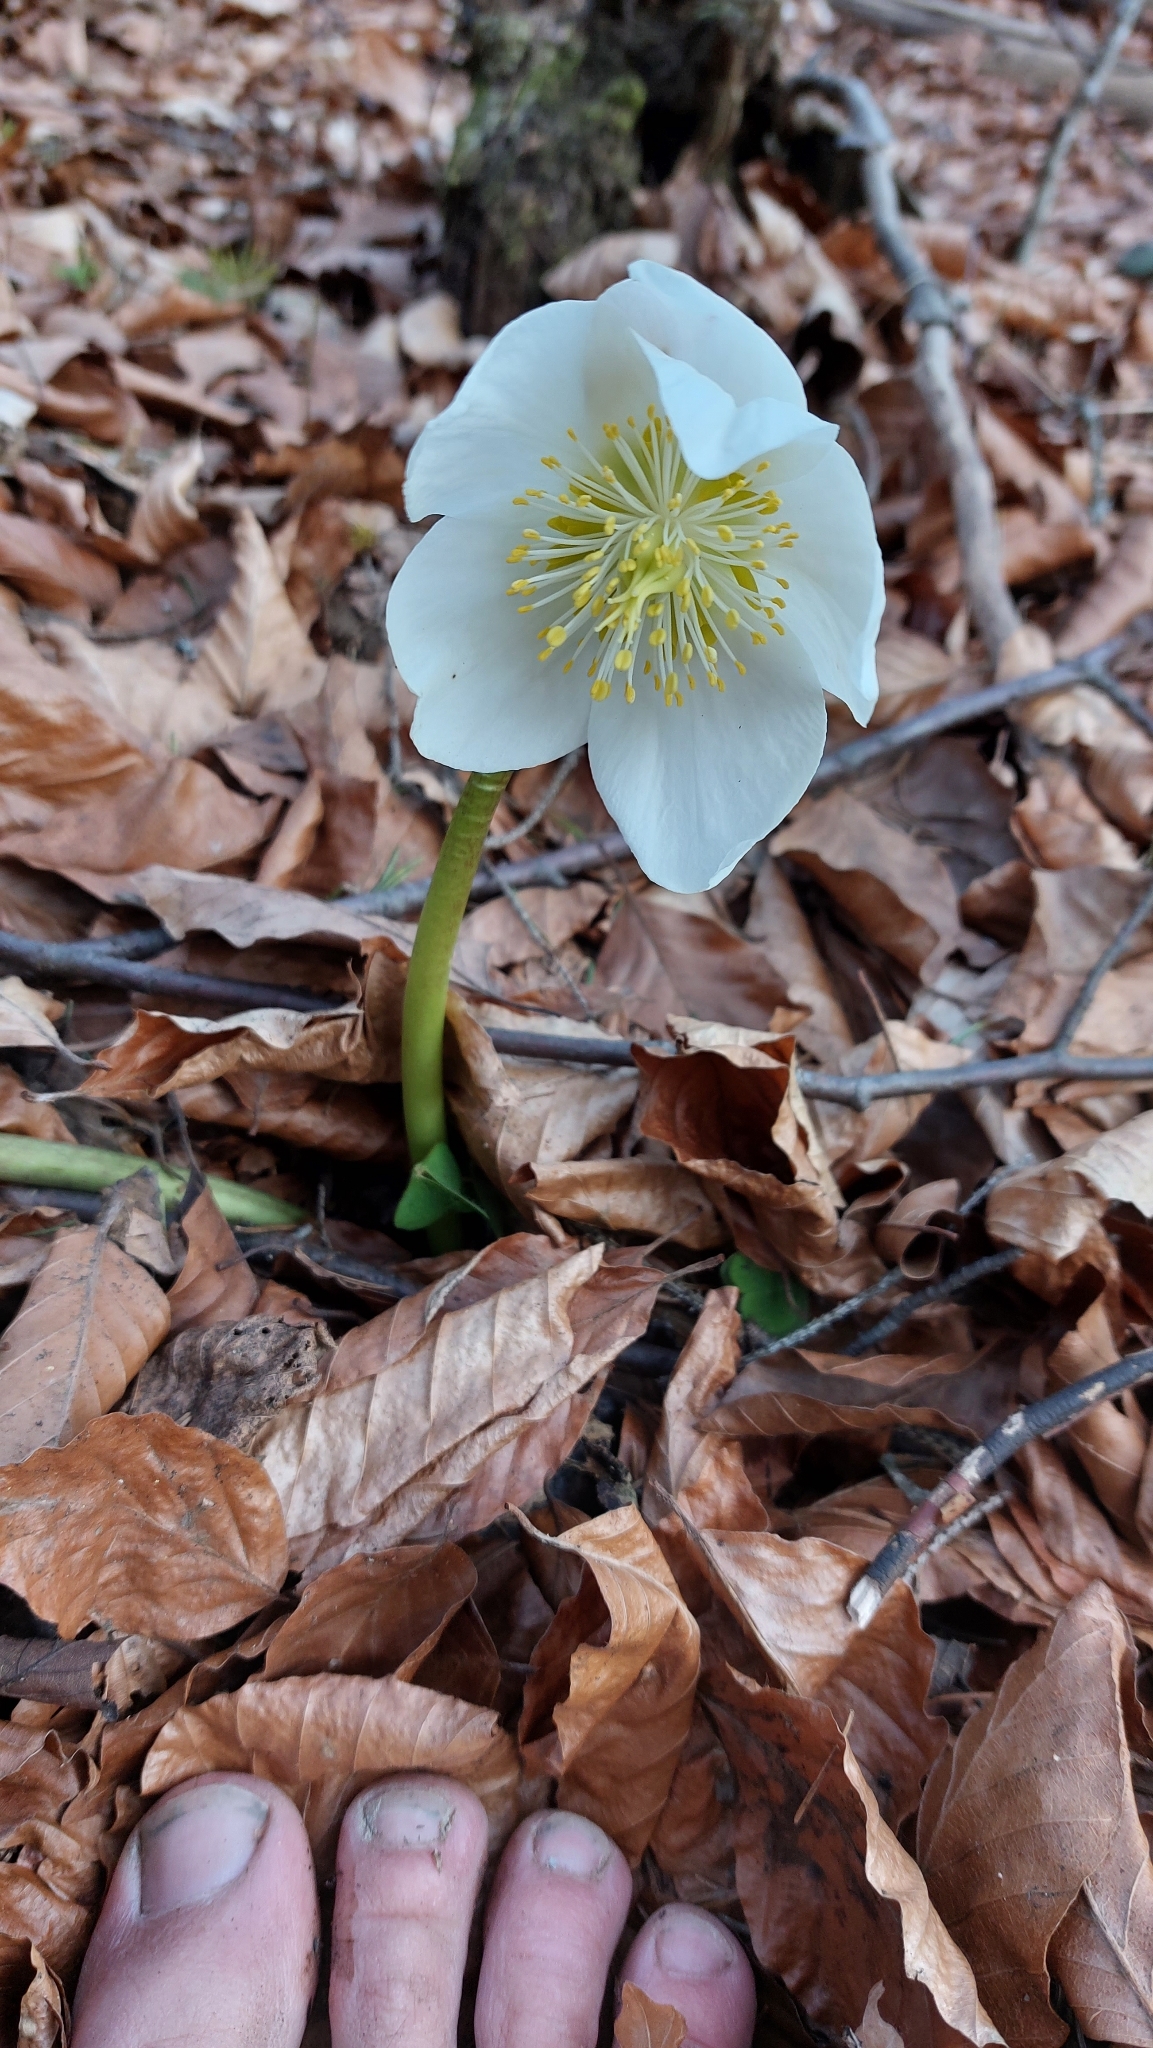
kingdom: Plantae
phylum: Tracheophyta
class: Magnoliopsida
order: Ranunculales
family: Ranunculaceae
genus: Helleborus
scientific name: Helleborus niger
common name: Black hellebore
